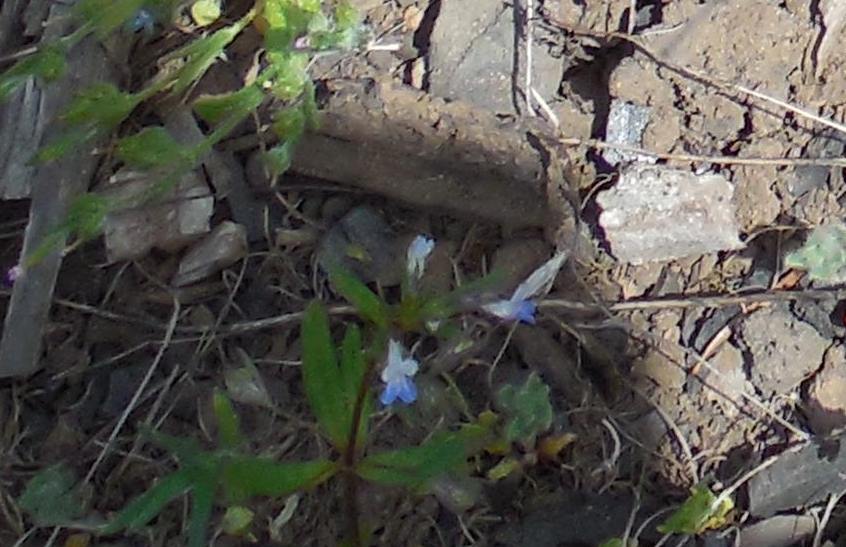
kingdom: Plantae
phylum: Tracheophyta
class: Magnoliopsida
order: Lamiales
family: Plantaginaceae
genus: Collinsia
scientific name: Collinsia parviflora
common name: Blue-lips
